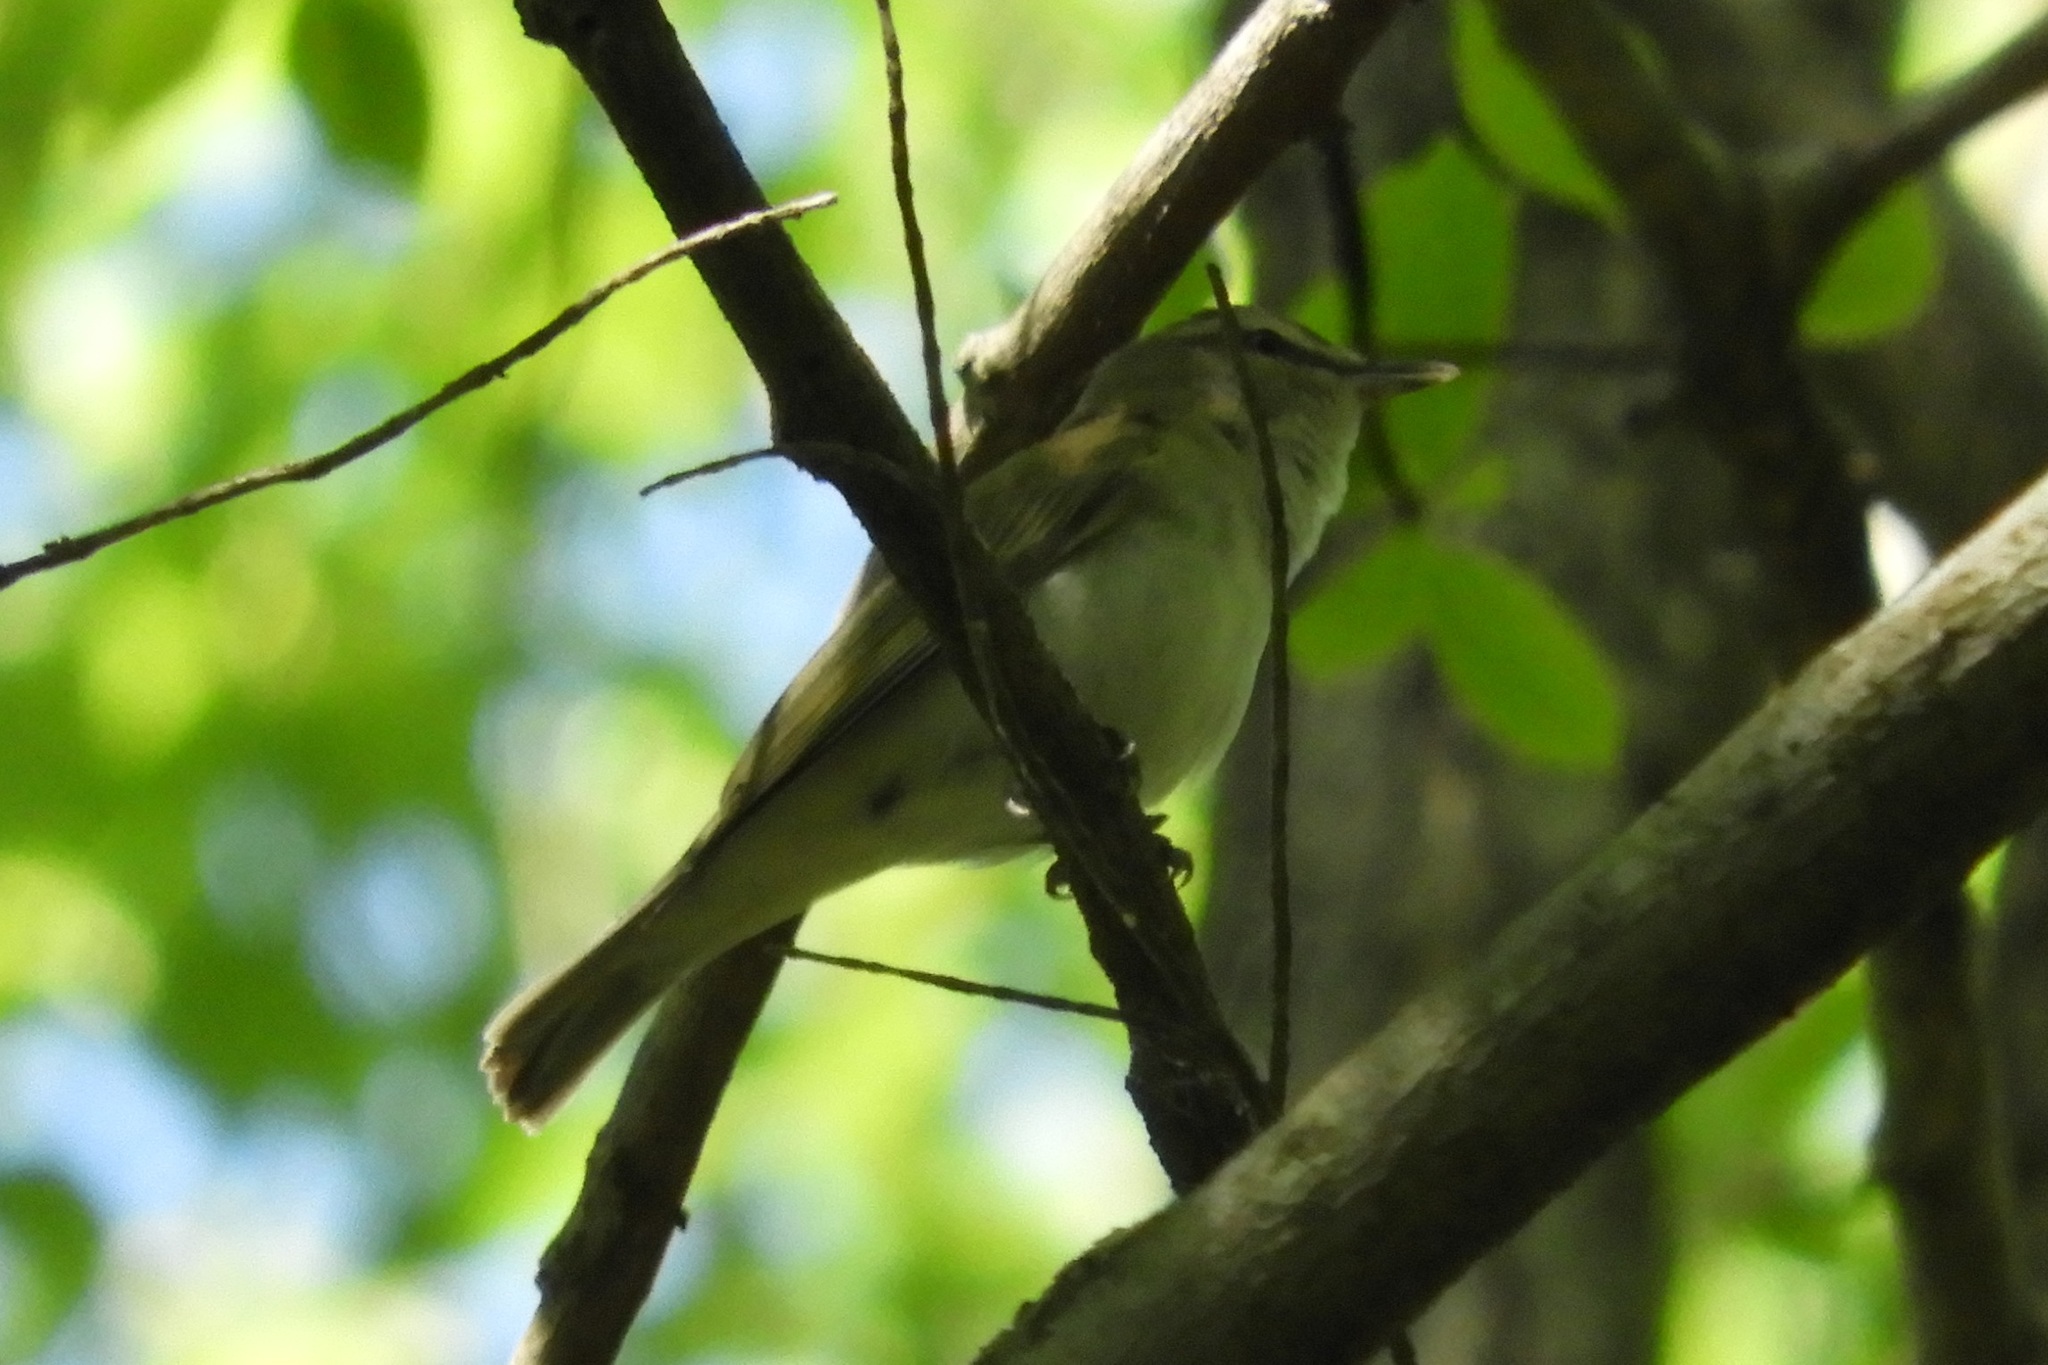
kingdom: Animalia
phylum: Chordata
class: Aves
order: Passeriformes
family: Vireonidae
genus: Vireo
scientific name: Vireo olivaceus
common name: Red-eyed vireo
